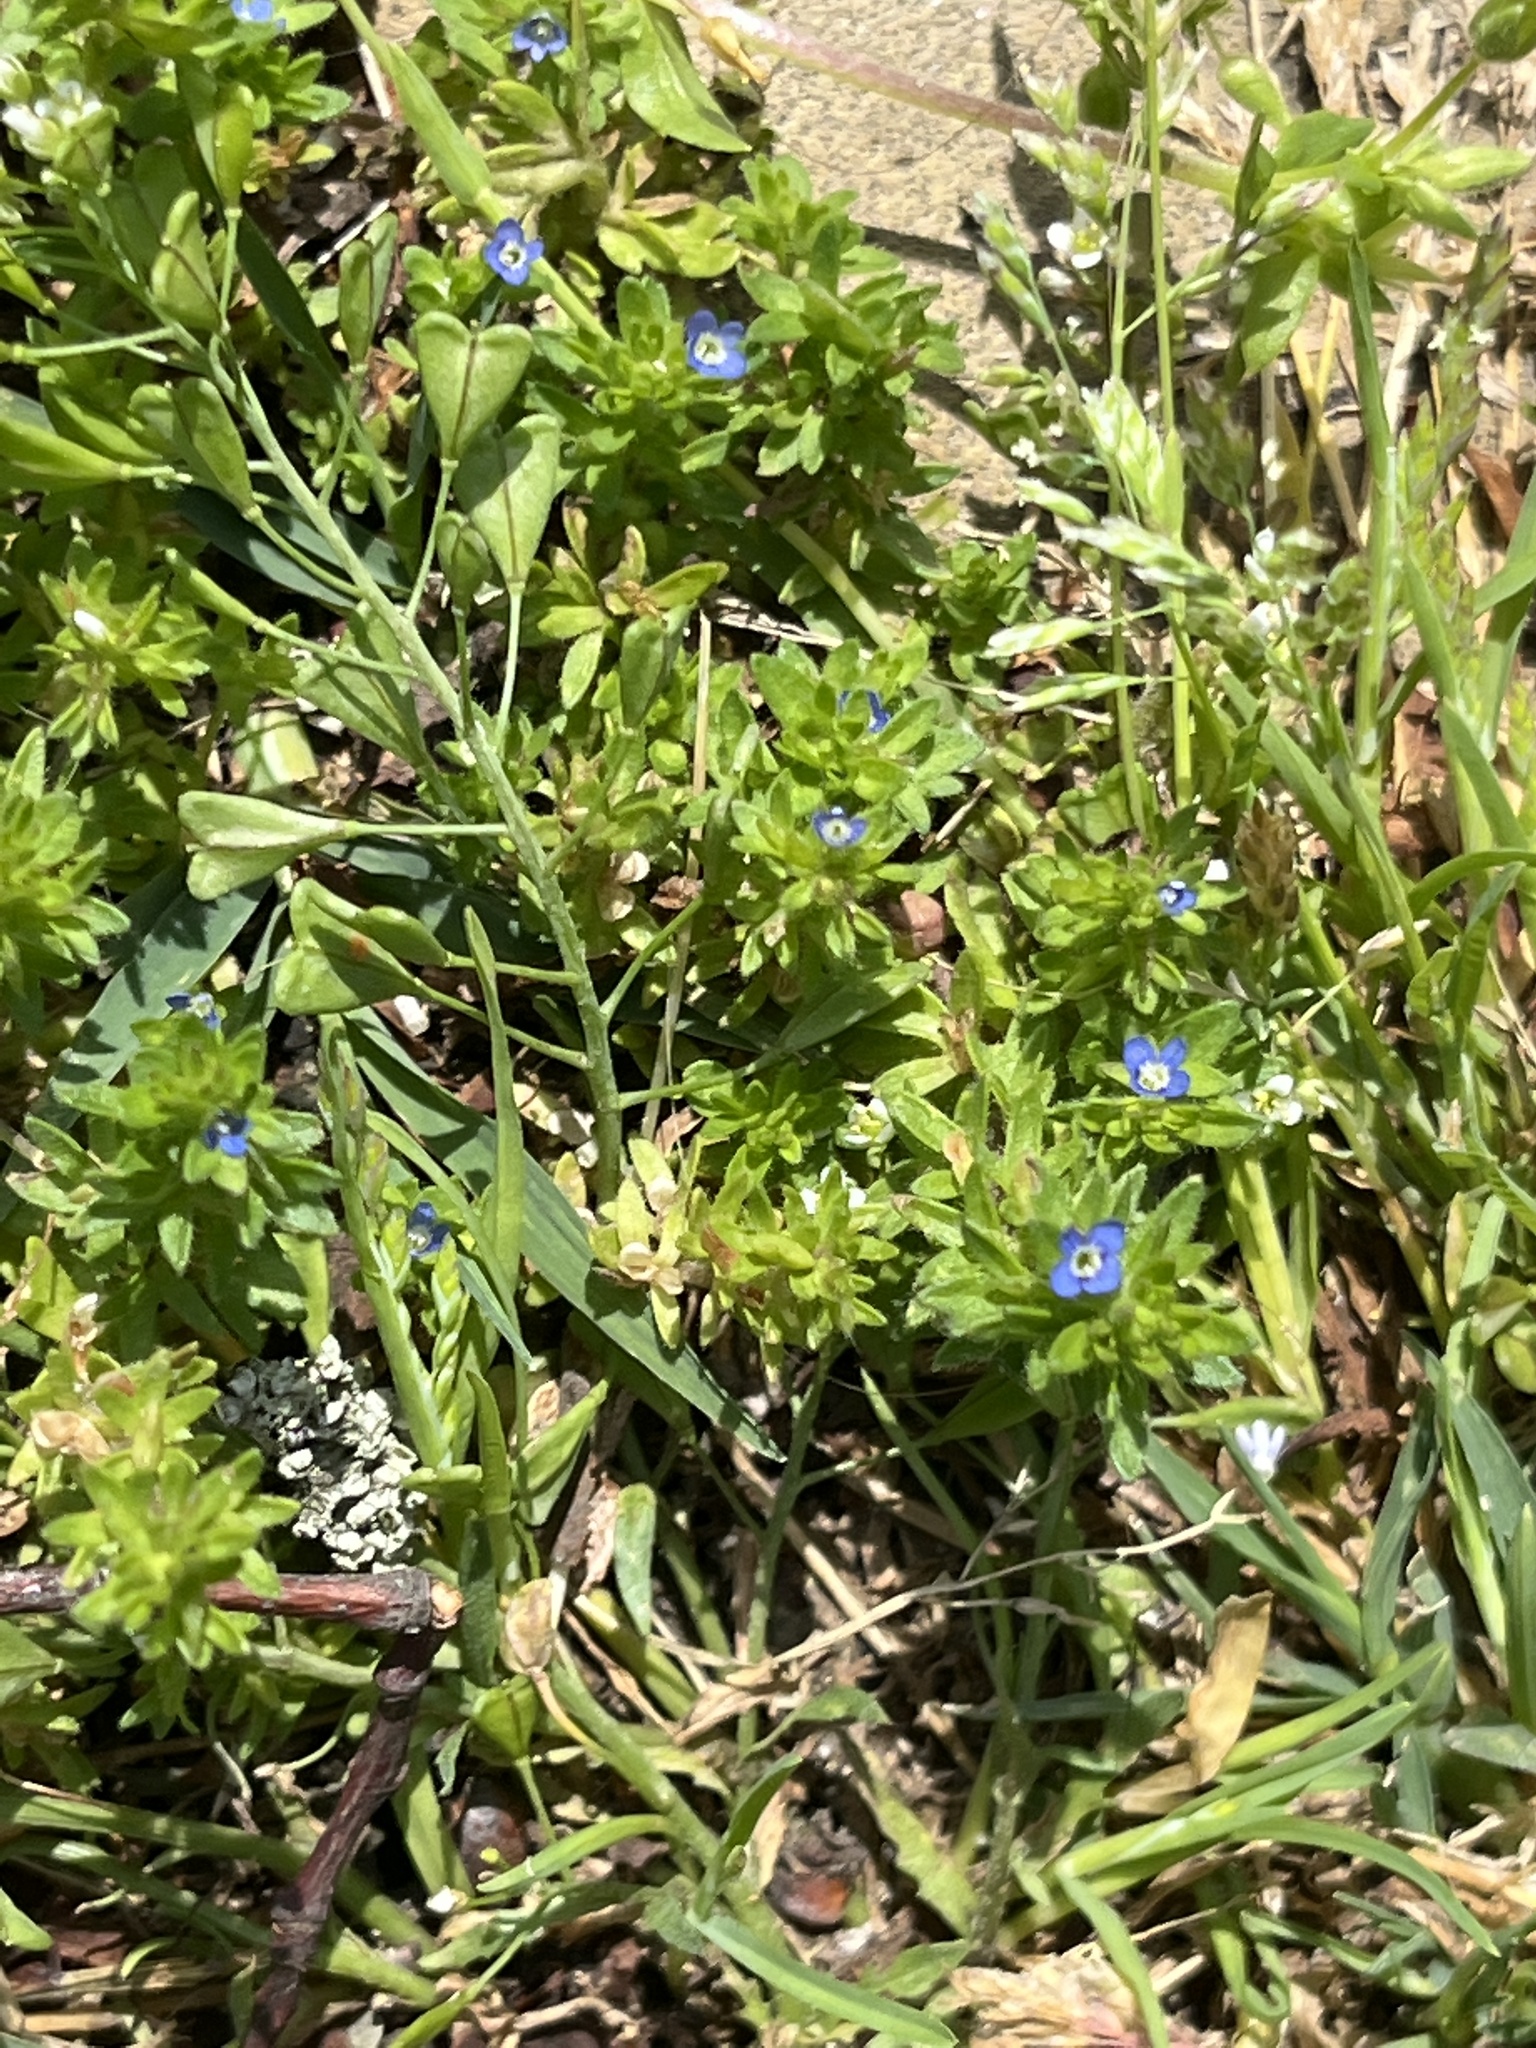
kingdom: Plantae
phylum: Tracheophyta
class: Magnoliopsida
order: Lamiales
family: Plantaginaceae
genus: Veronica
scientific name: Veronica arvensis
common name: Corn speedwell
